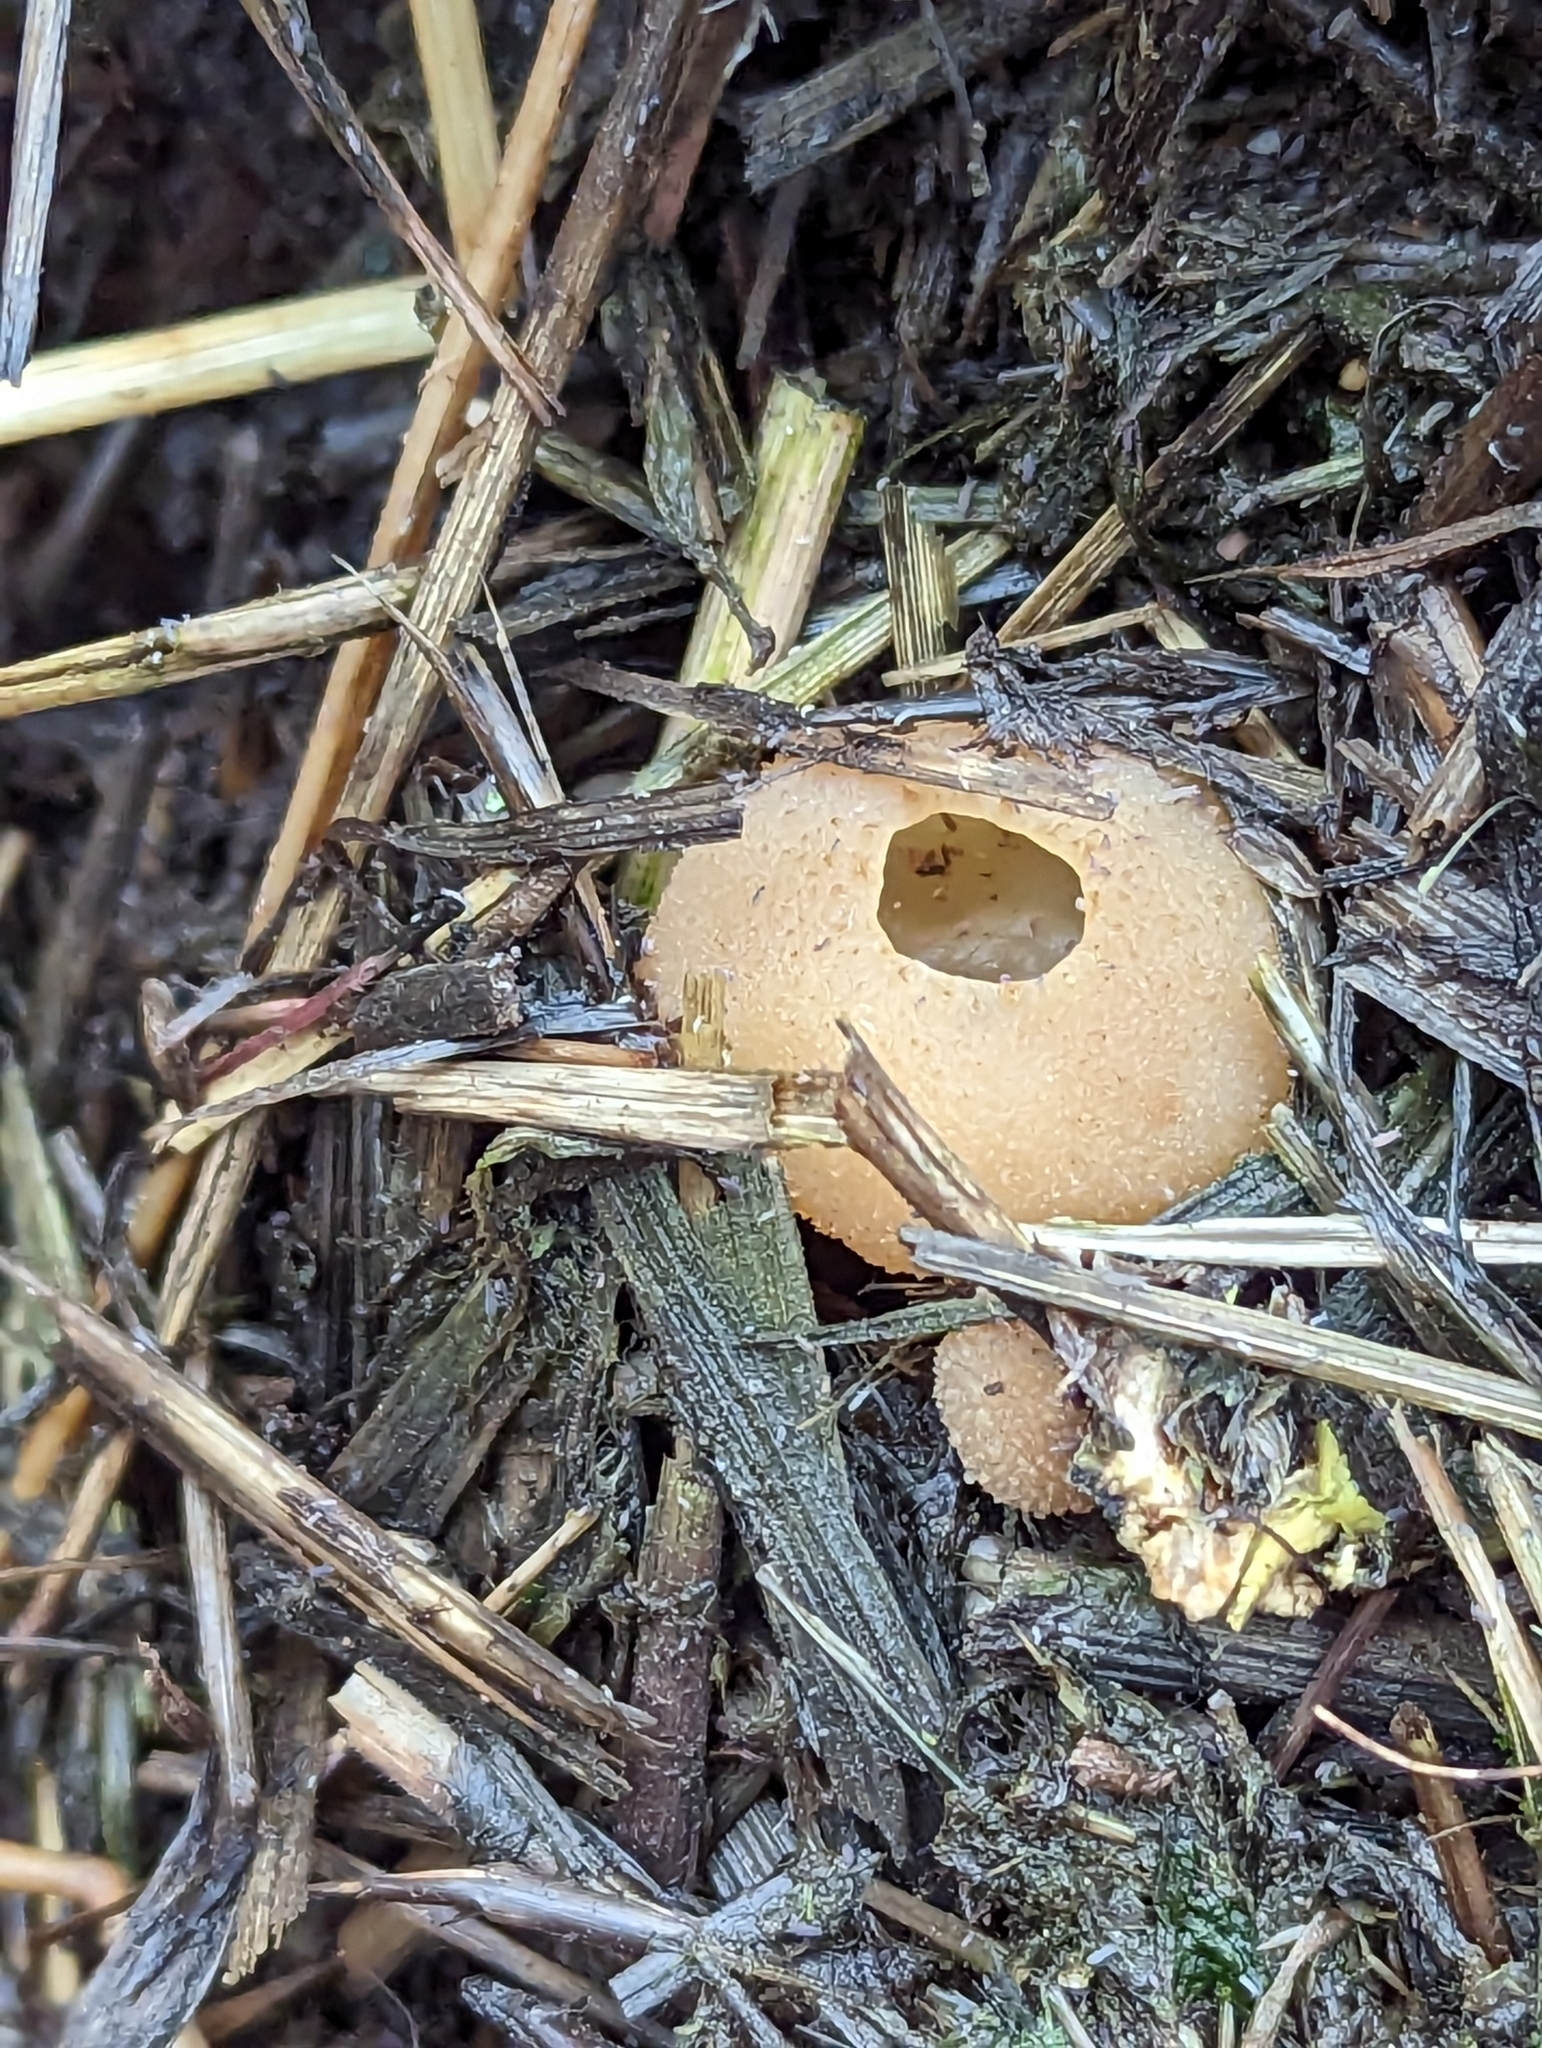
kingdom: Fungi
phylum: Ascomycota
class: Pezizomycetes
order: Pezizales
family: Pezizaceae
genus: Peziza
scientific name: Peziza vesiculosa
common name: Blistered cup
